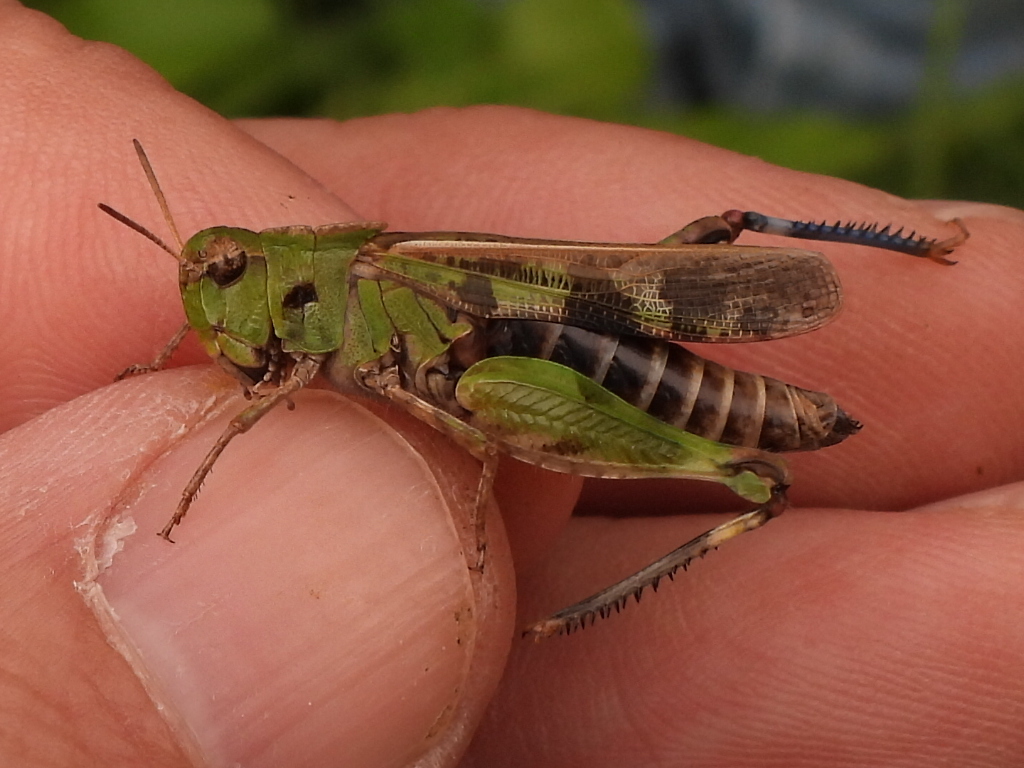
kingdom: Animalia
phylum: Arthropoda
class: Insecta
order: Orthoptera
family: Acrididae
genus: Encoptolophus
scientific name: Encoptolophus costalis
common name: Dusky grasshopper
